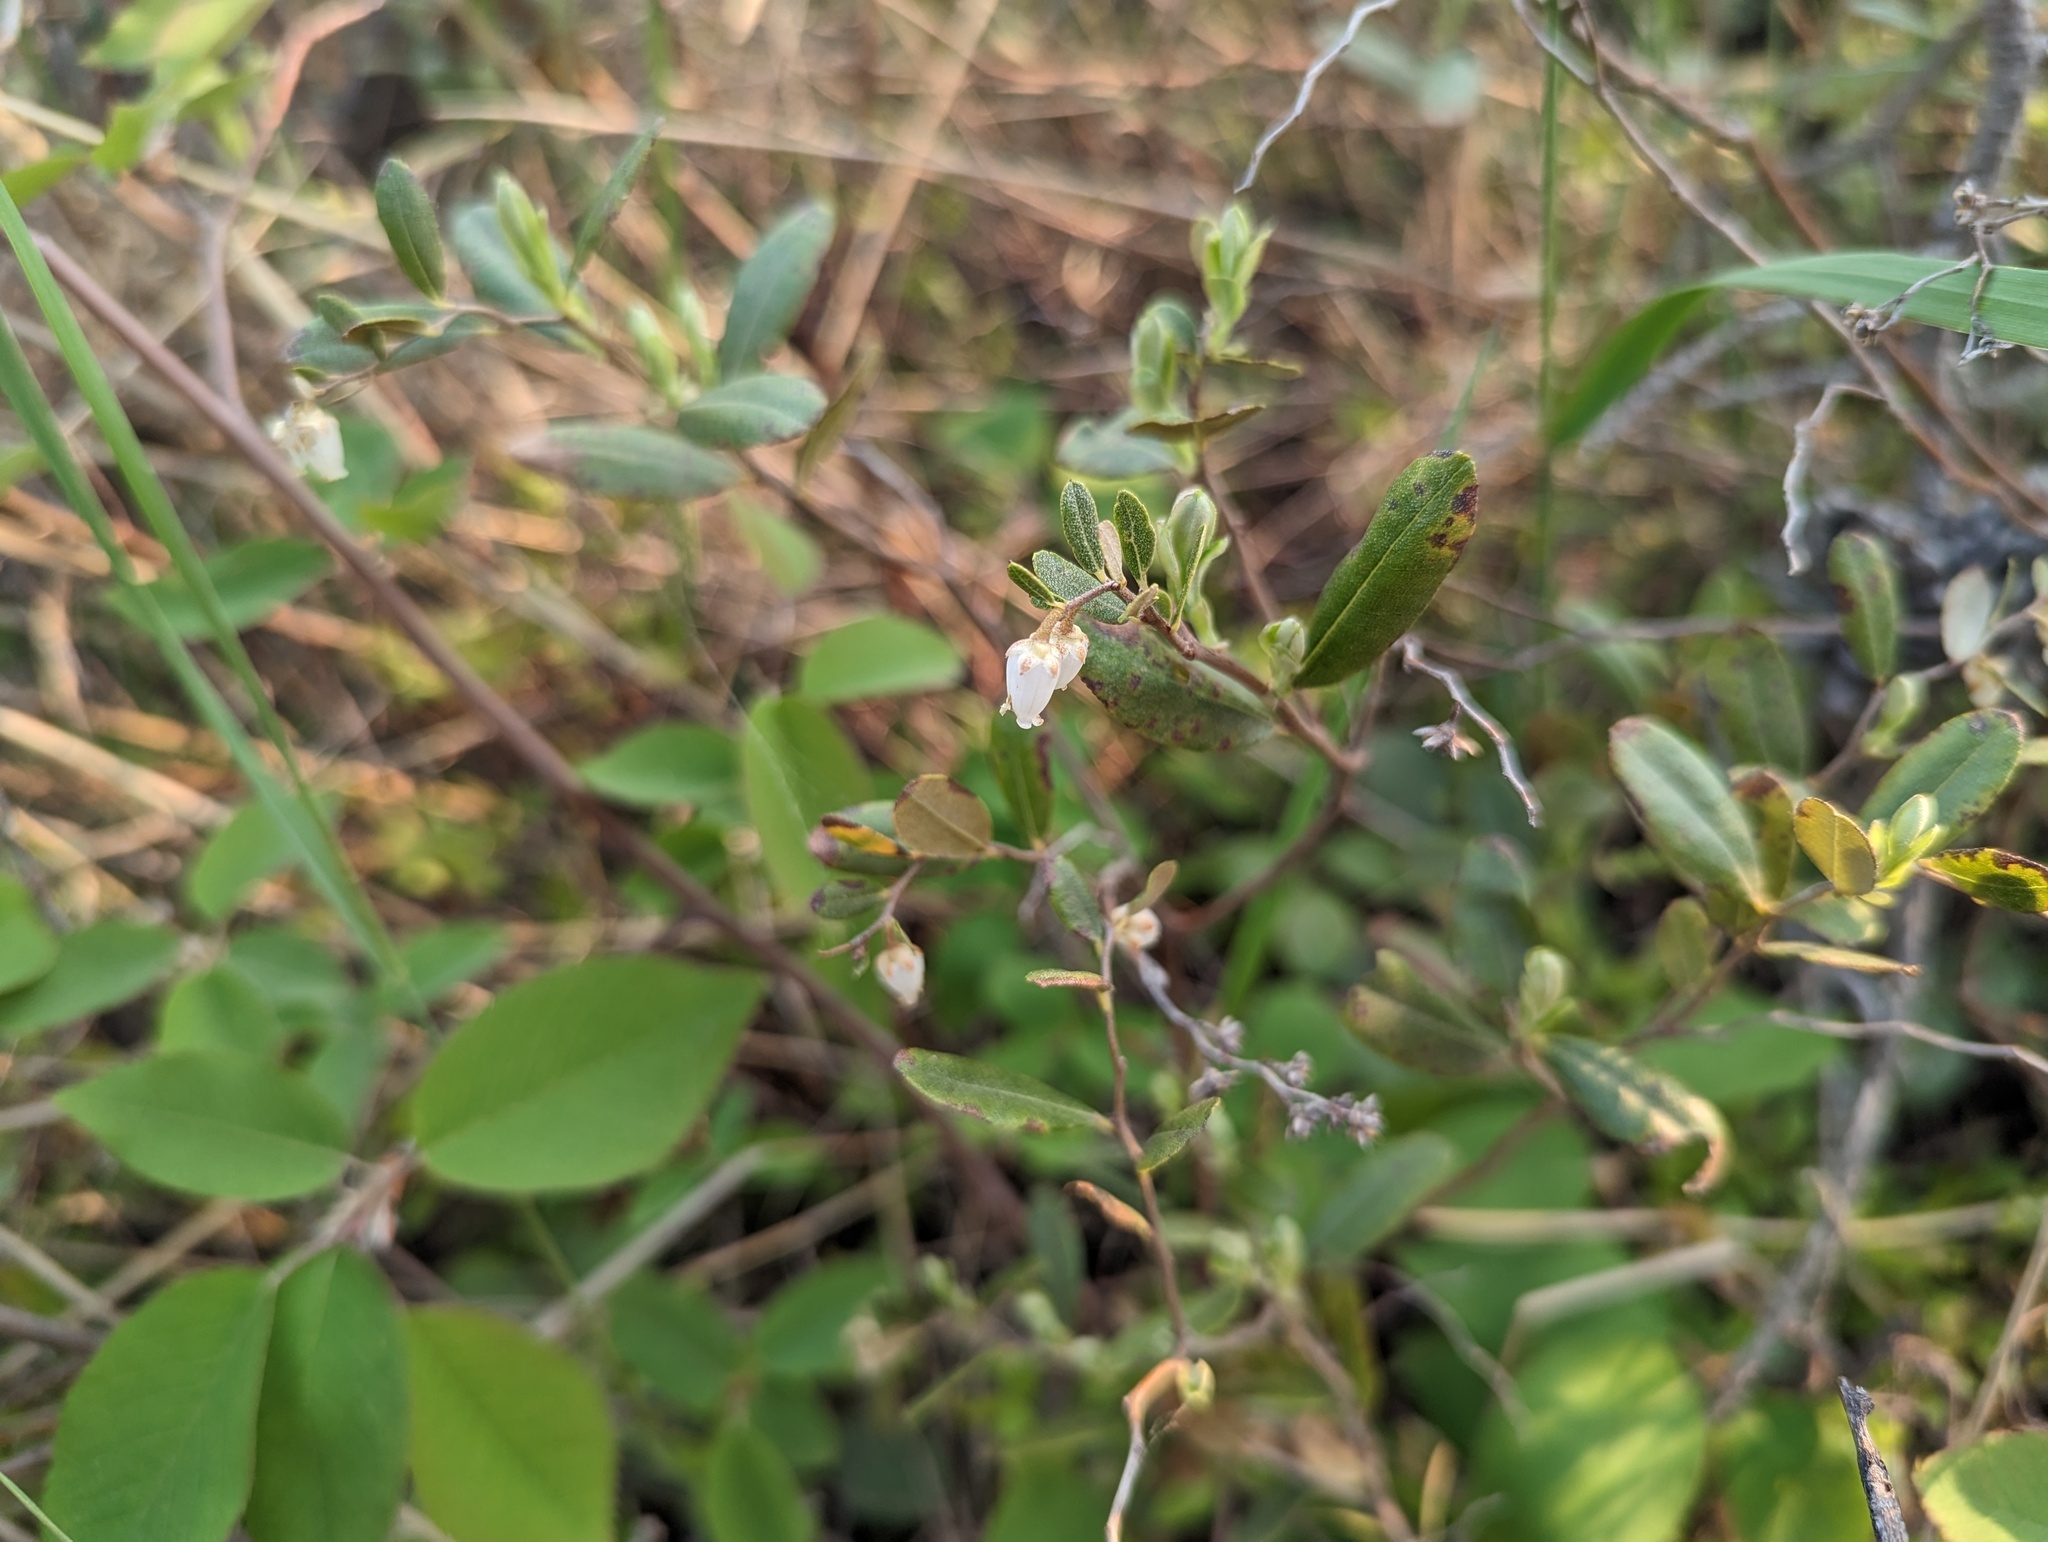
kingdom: Plantae
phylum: Tracheophyta
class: Magnoliopsida
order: Ericales
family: Ericaceae
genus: Chamaedaphne
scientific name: Chamaedaphne calyculata
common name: Leatherleaf
